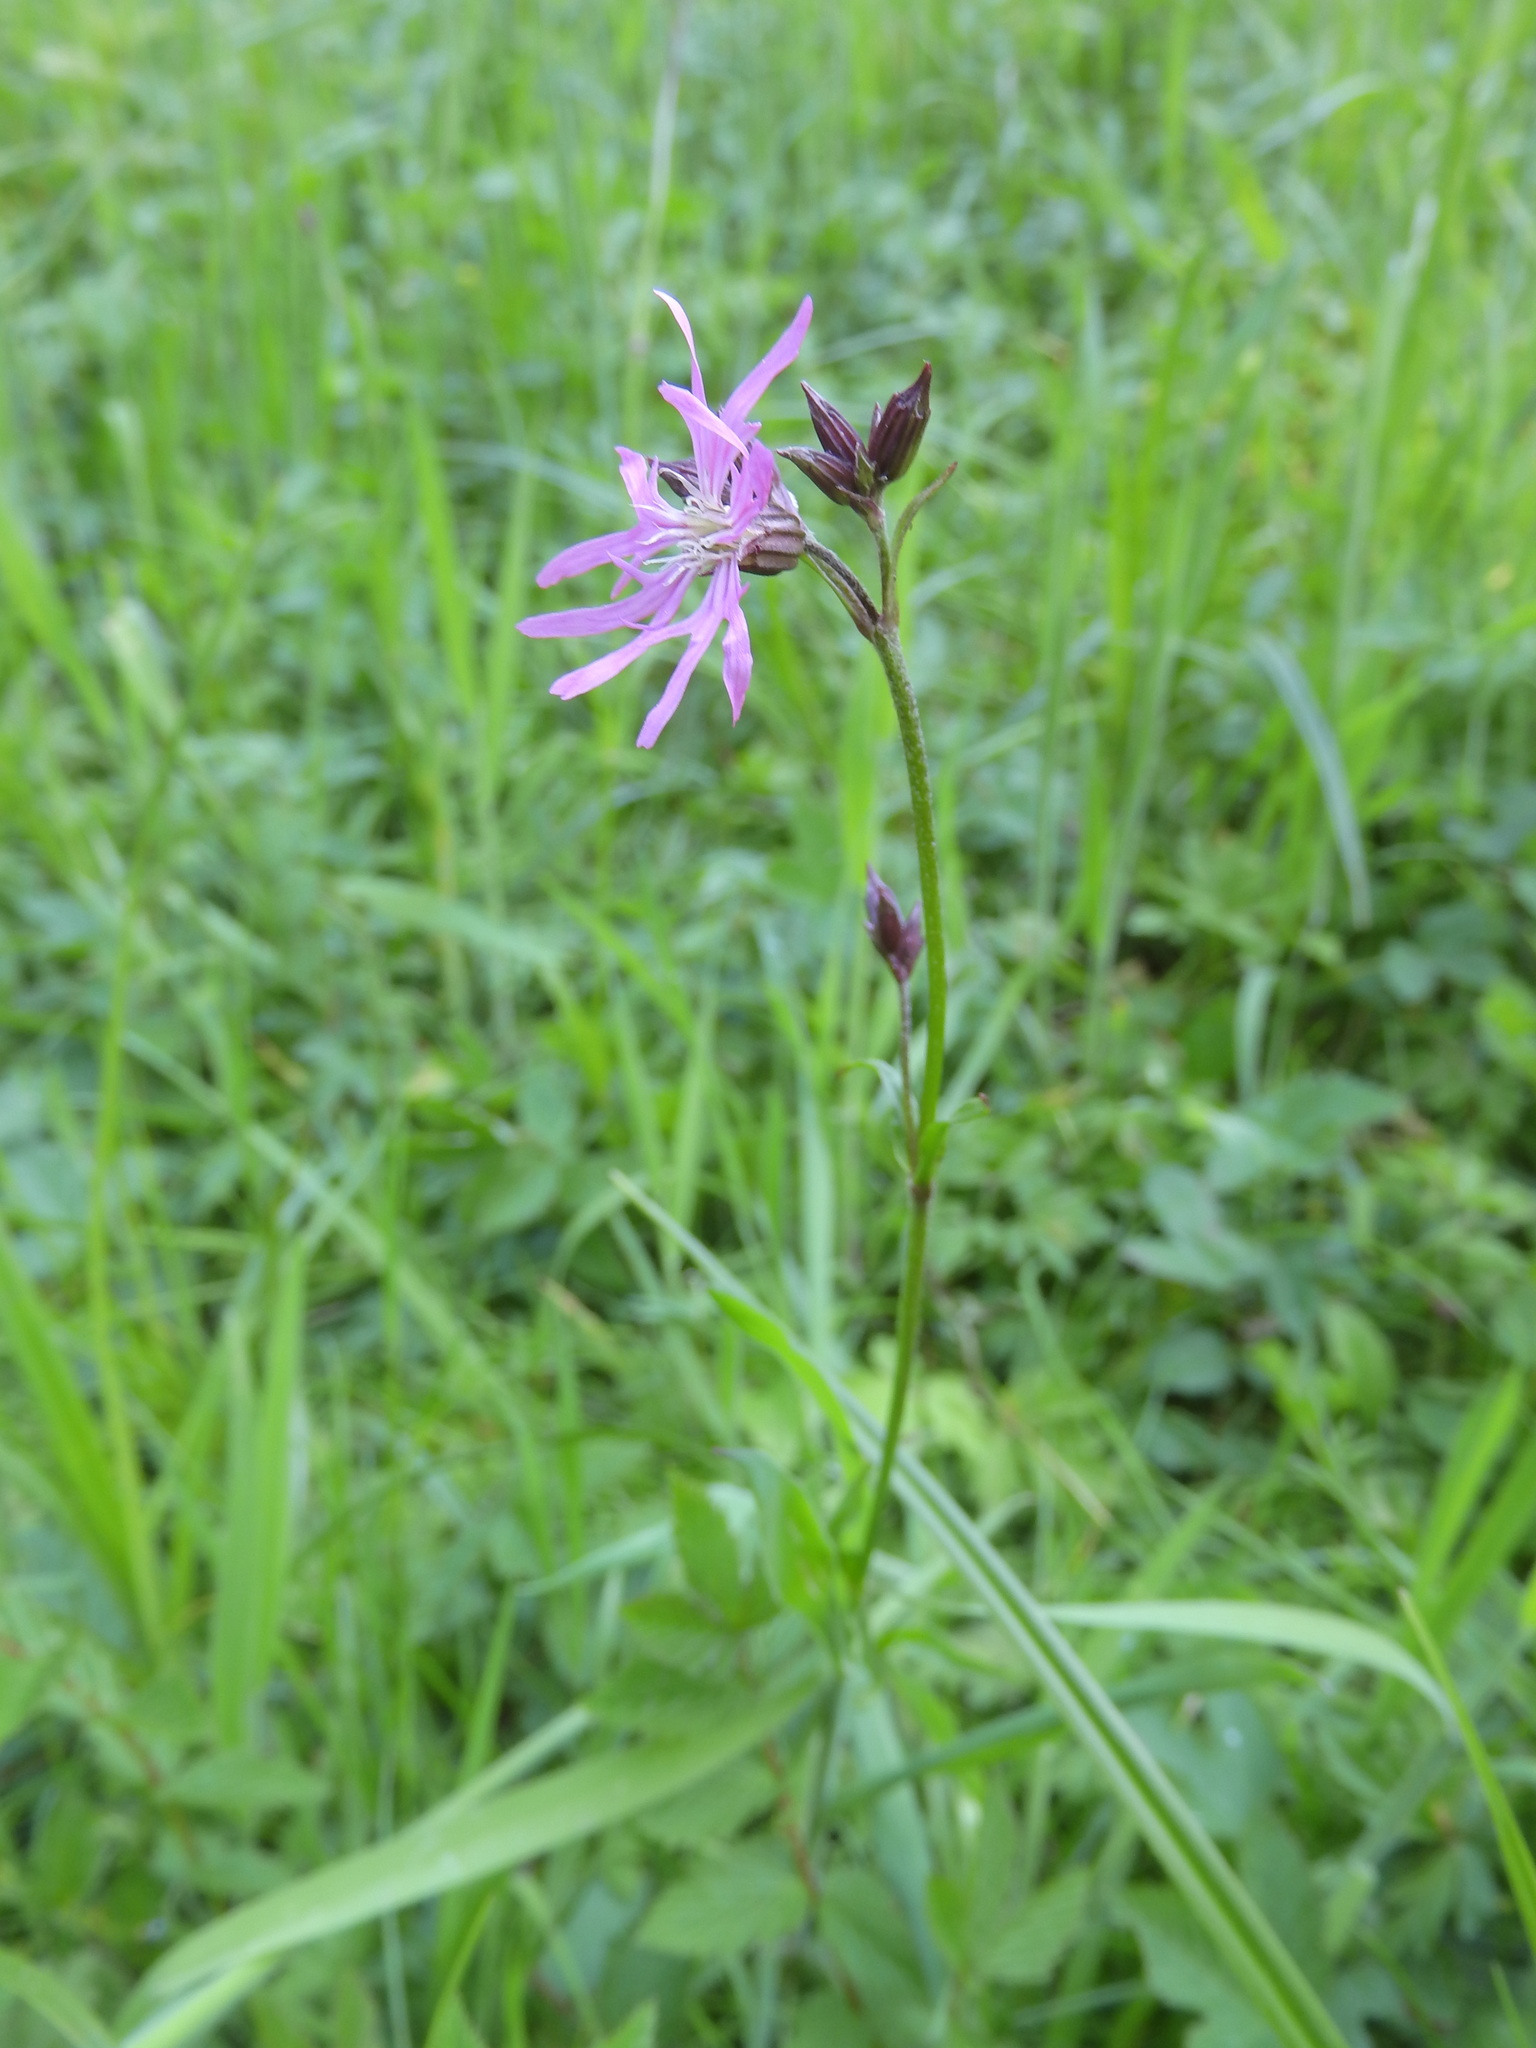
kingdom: Plantae
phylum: Tracheophyta
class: Magnoliopsida
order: Caryophyllales
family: Caryophyllaceae
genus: Silene
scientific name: Silene flos-cuculi
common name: Ragged-robin
